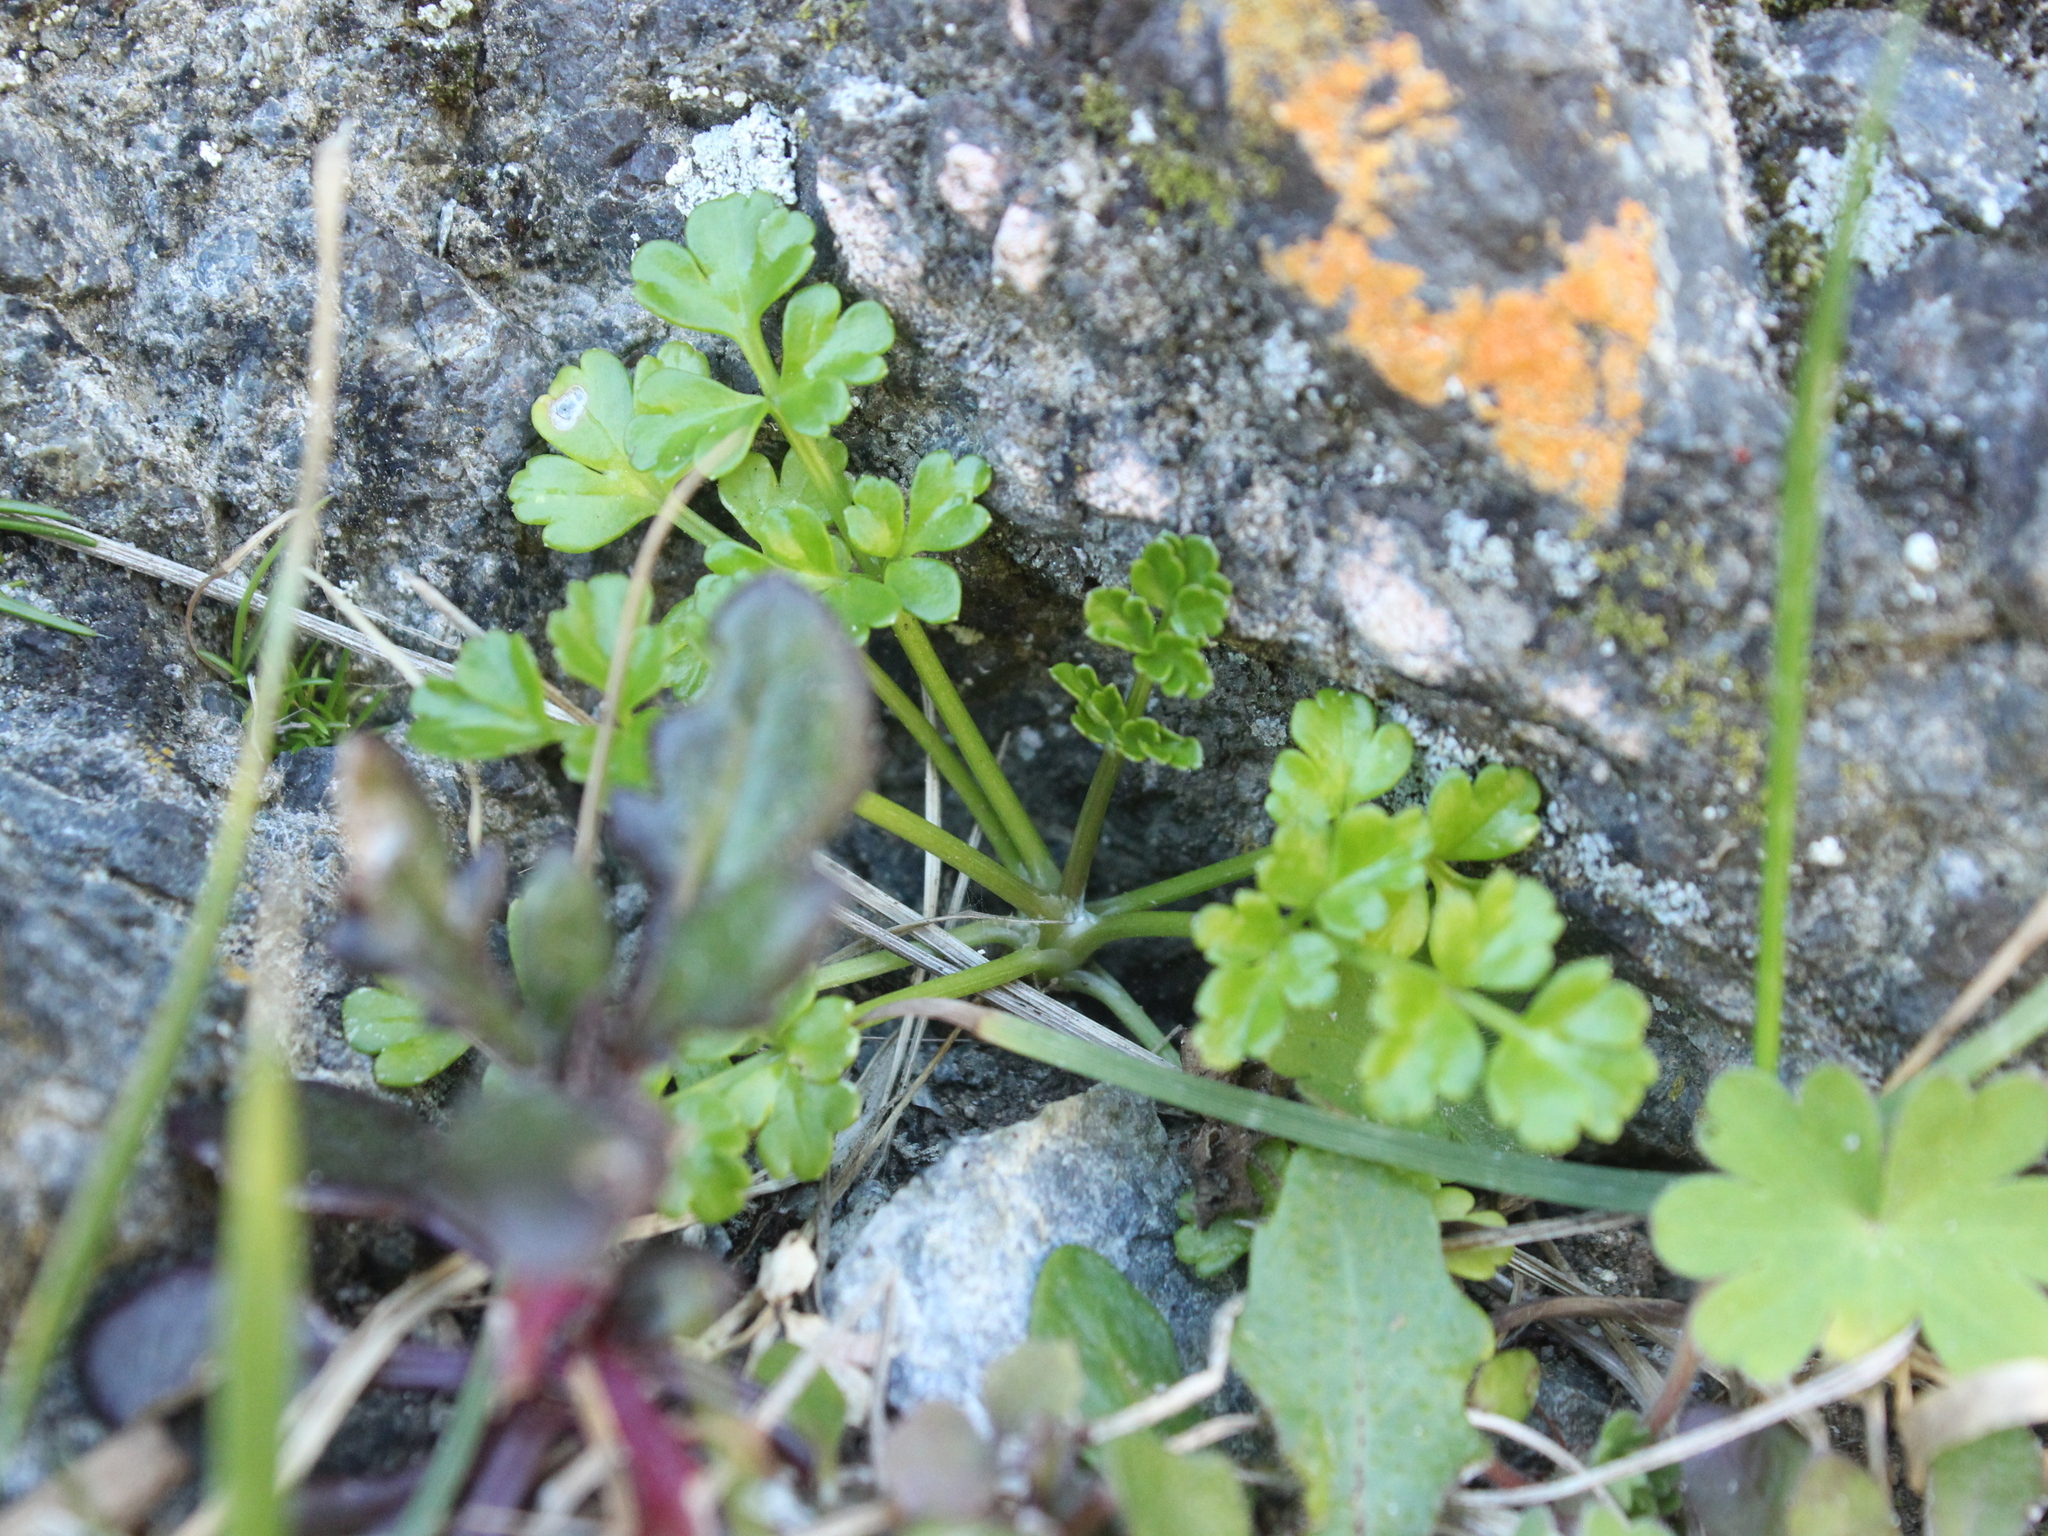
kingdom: Plantae
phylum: Tracheophyta
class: Magnoliopsida
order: Apiales
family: Apiaceae
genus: Apium
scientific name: Apium prostratum
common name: Prostrate marshwort
